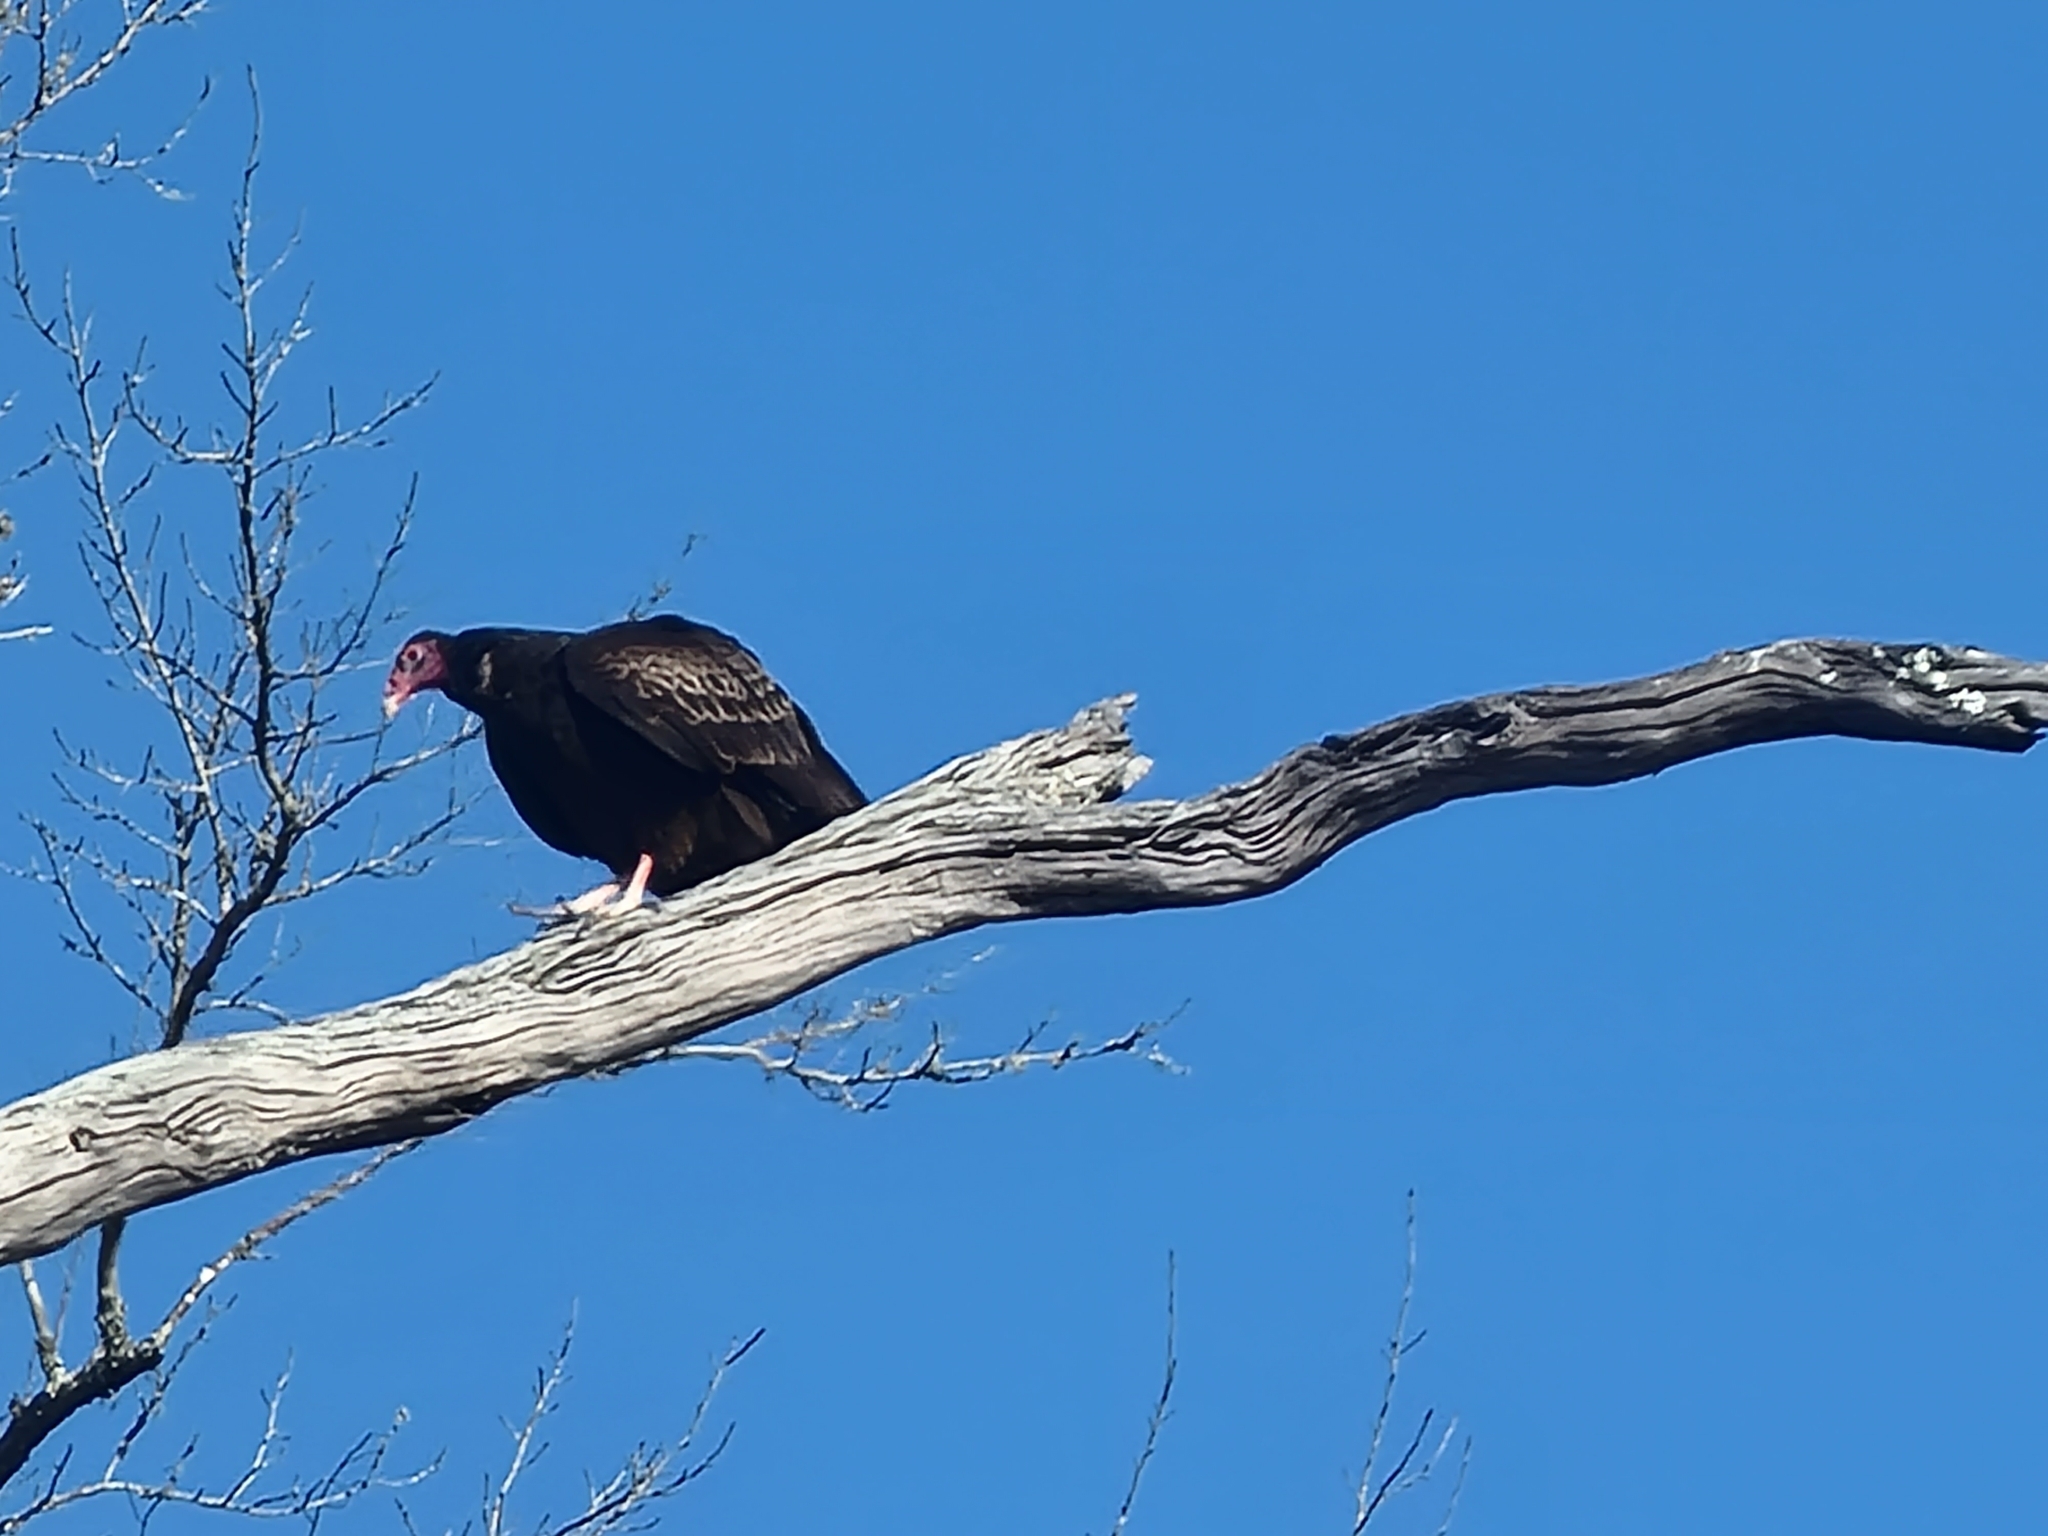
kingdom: Animalia
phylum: Chordata
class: Aves
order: Accipitriformes
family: Cathartidae
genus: Cathartes
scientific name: Cathartes aura
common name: Turkey vulture
